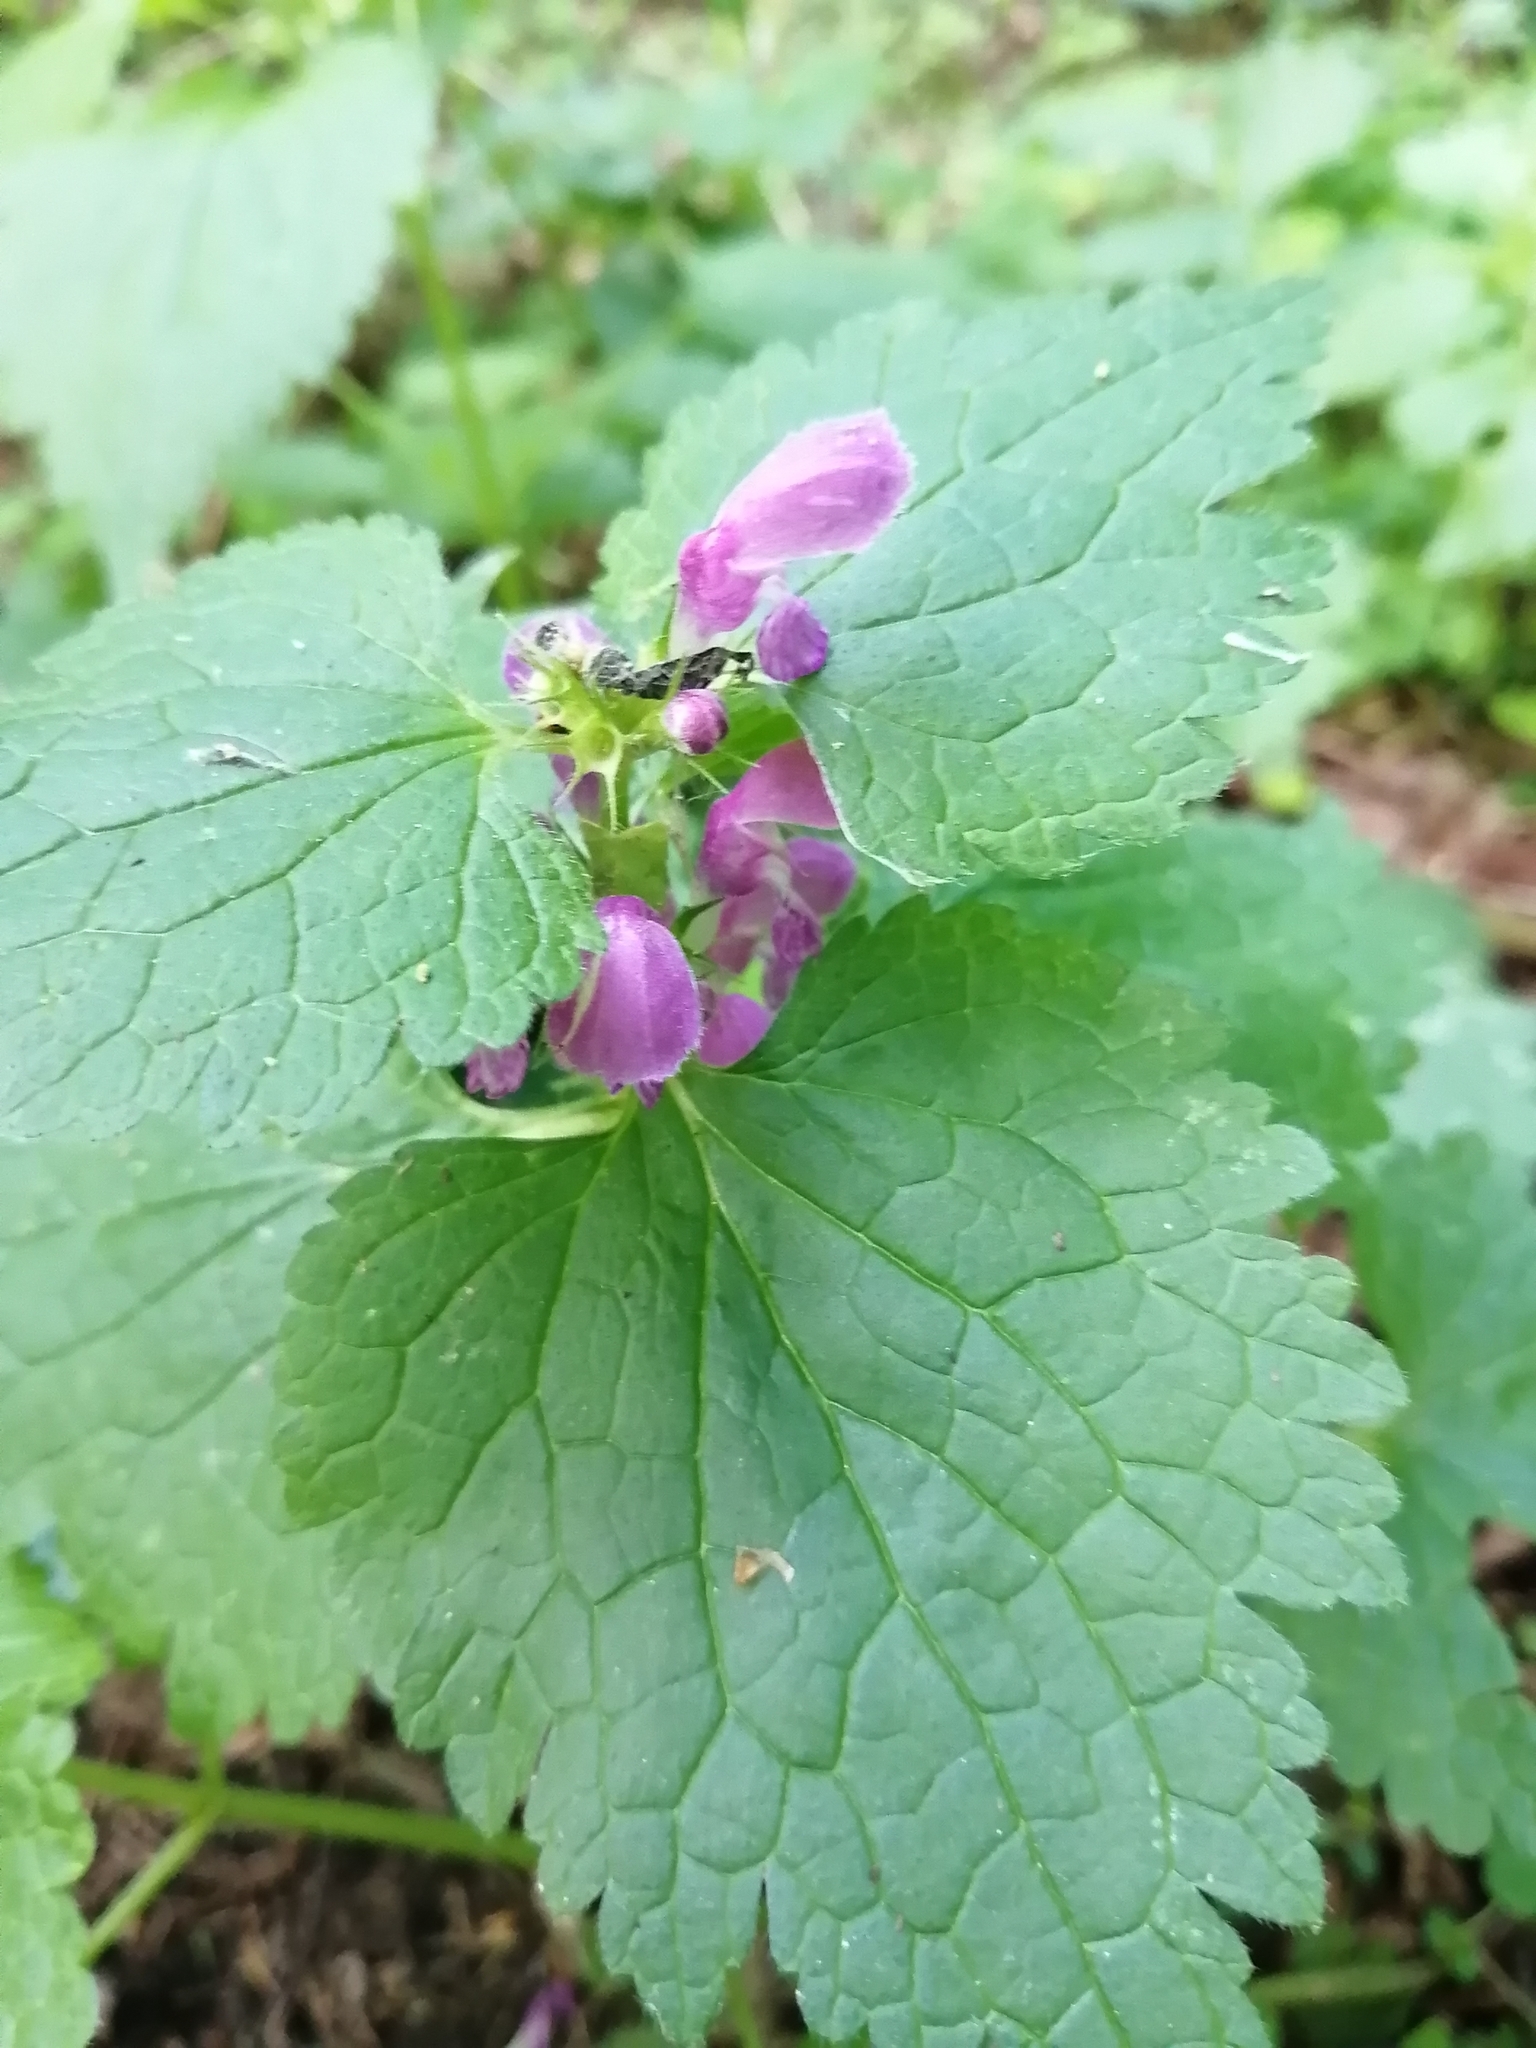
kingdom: Plantae
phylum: Tracheophyta
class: Magnoliopsida
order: Lamiales
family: Lamiaceae
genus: Lamium
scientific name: Lamium maculatum
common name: Spotted dead-nettle
